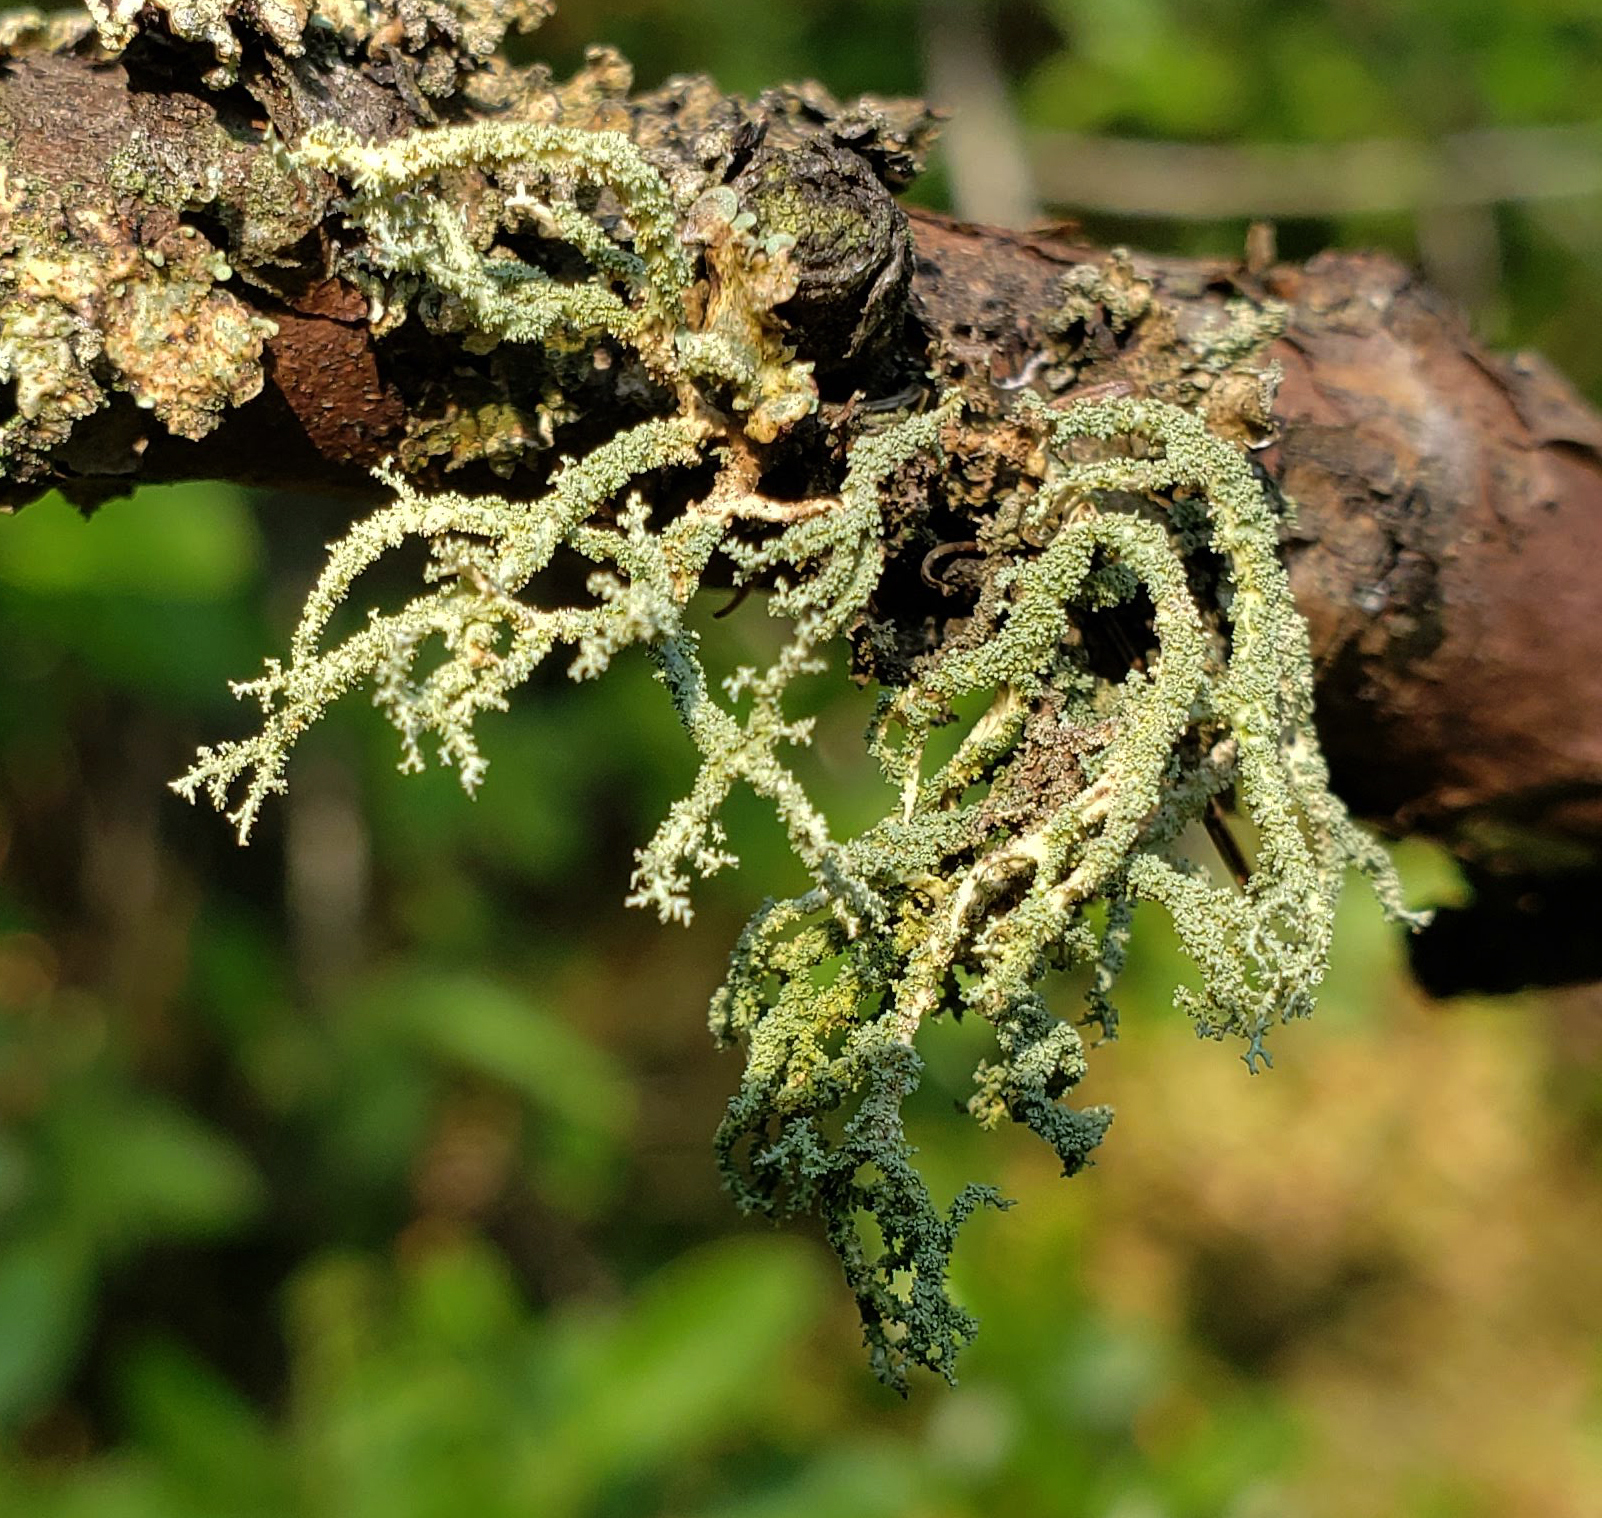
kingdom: Fungi
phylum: Ascomycota
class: Lecanoromycetes
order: Lecanorales
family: Parmeliaceae
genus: Evernia
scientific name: Evernia mesomorpha
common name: Boreal oak moss lichen
